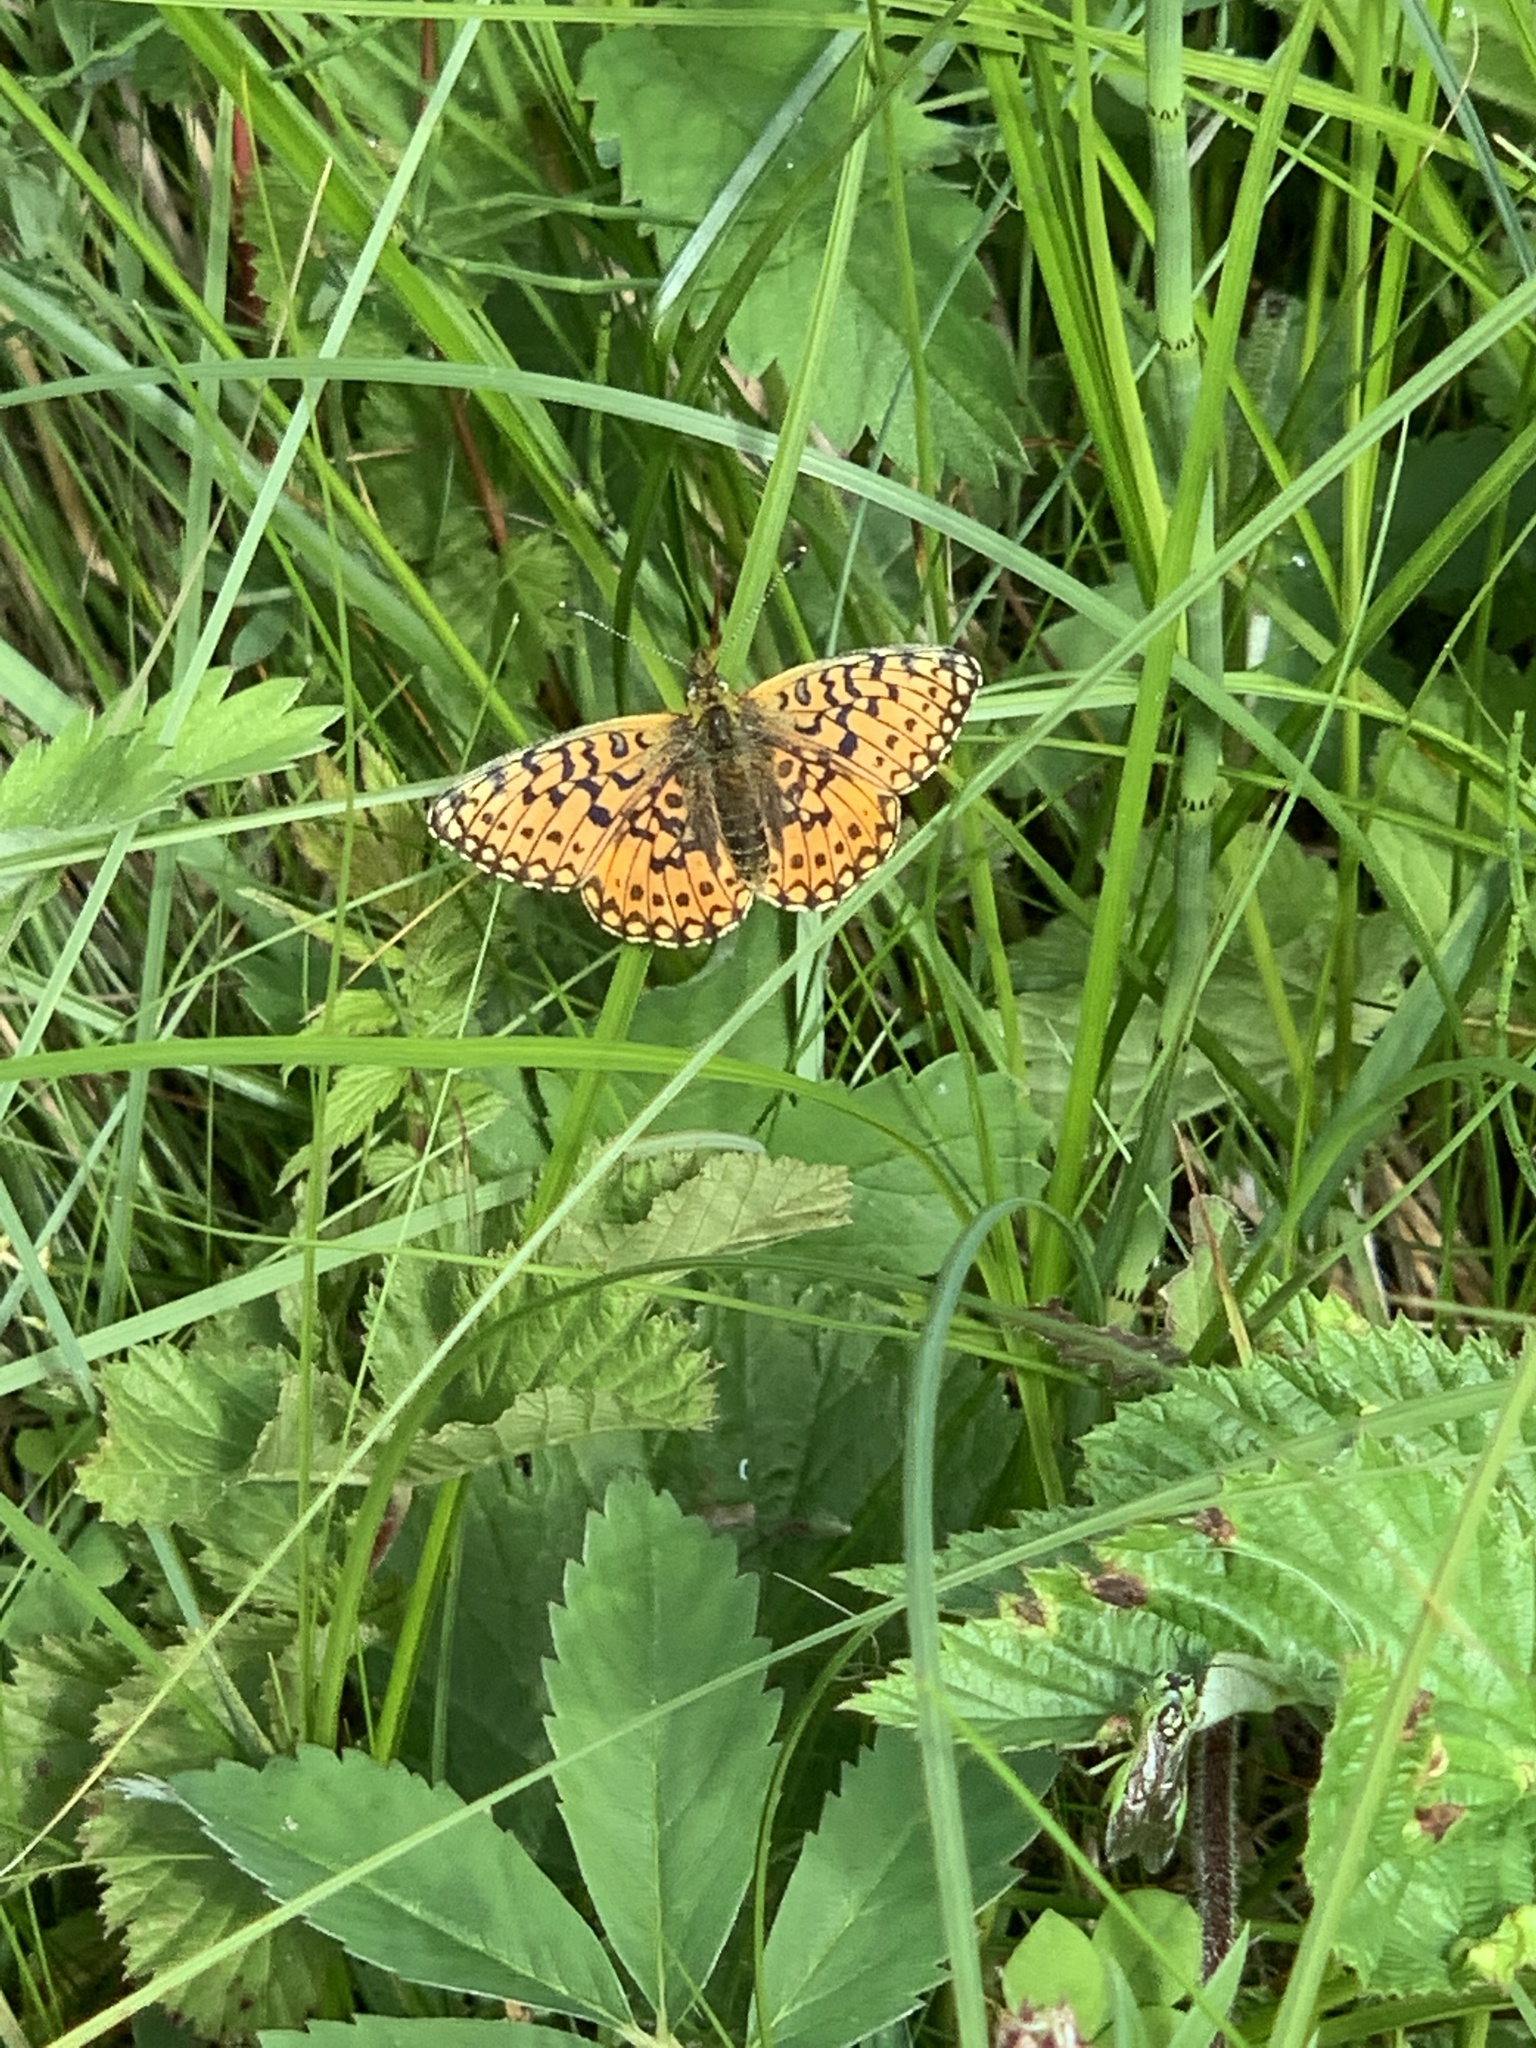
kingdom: Animalia
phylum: Arthropoda
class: Insecta
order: Lepidoptera
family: Nymphalidae
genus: Boloria
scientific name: Boloria selene
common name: Small pearl-bordered fritillary
